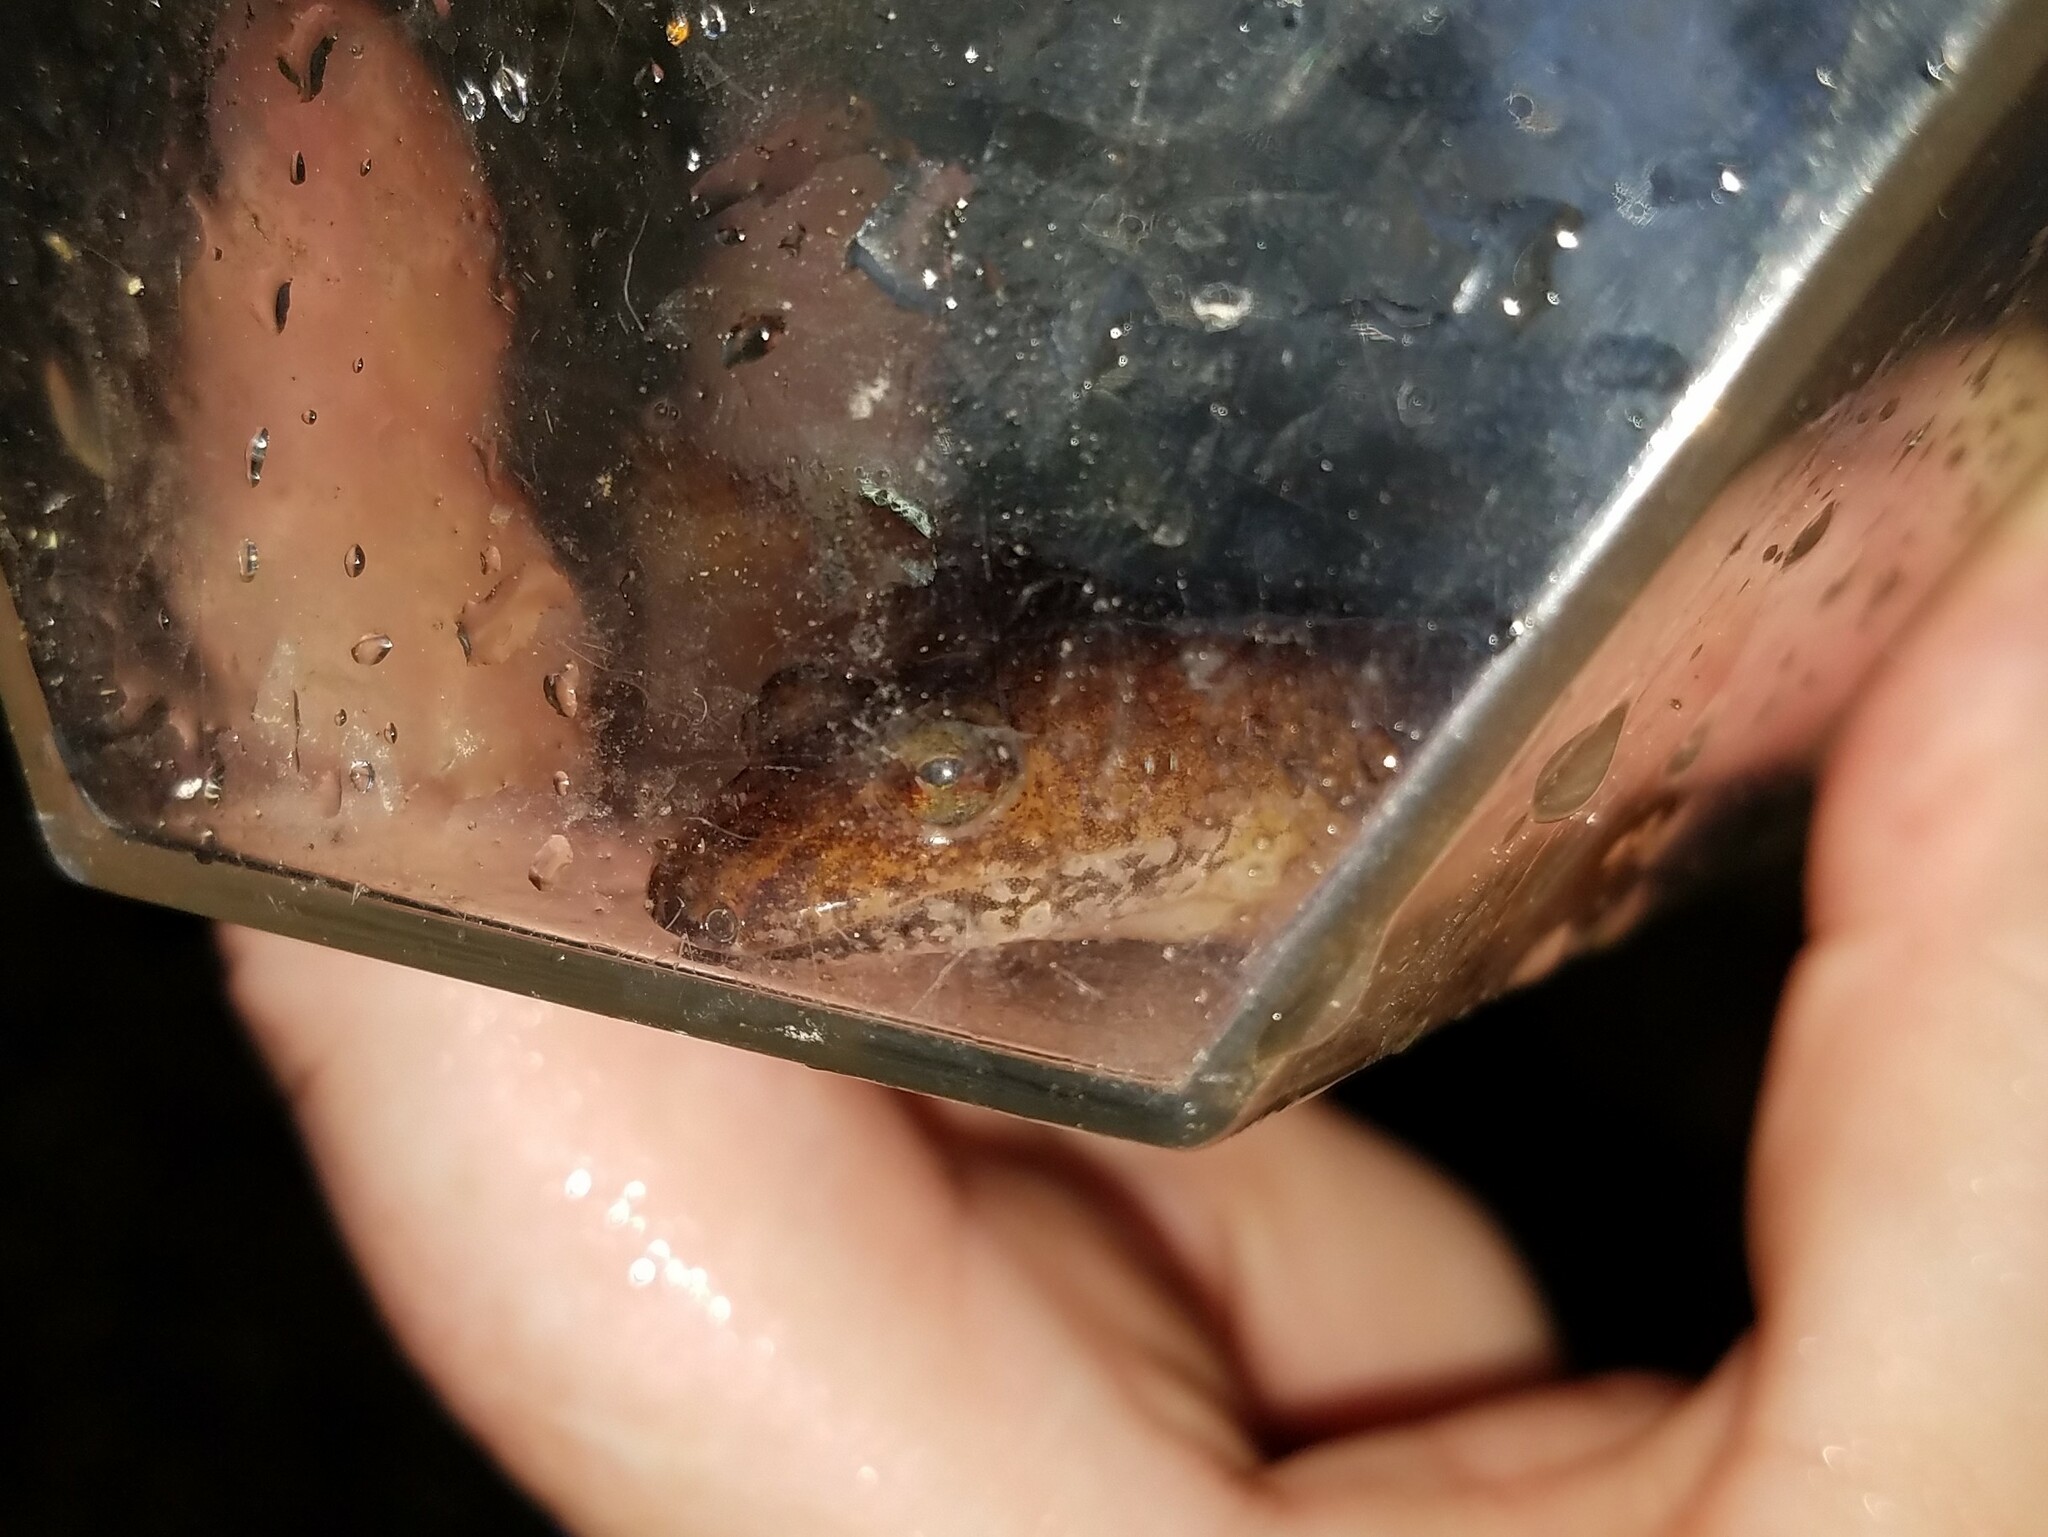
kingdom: Animalia
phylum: Chordata
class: Amphibia
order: Caudata
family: Plethodontidae
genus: Gyrinophilus
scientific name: Gyrinophilus porphyriticus
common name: Spring salamander
